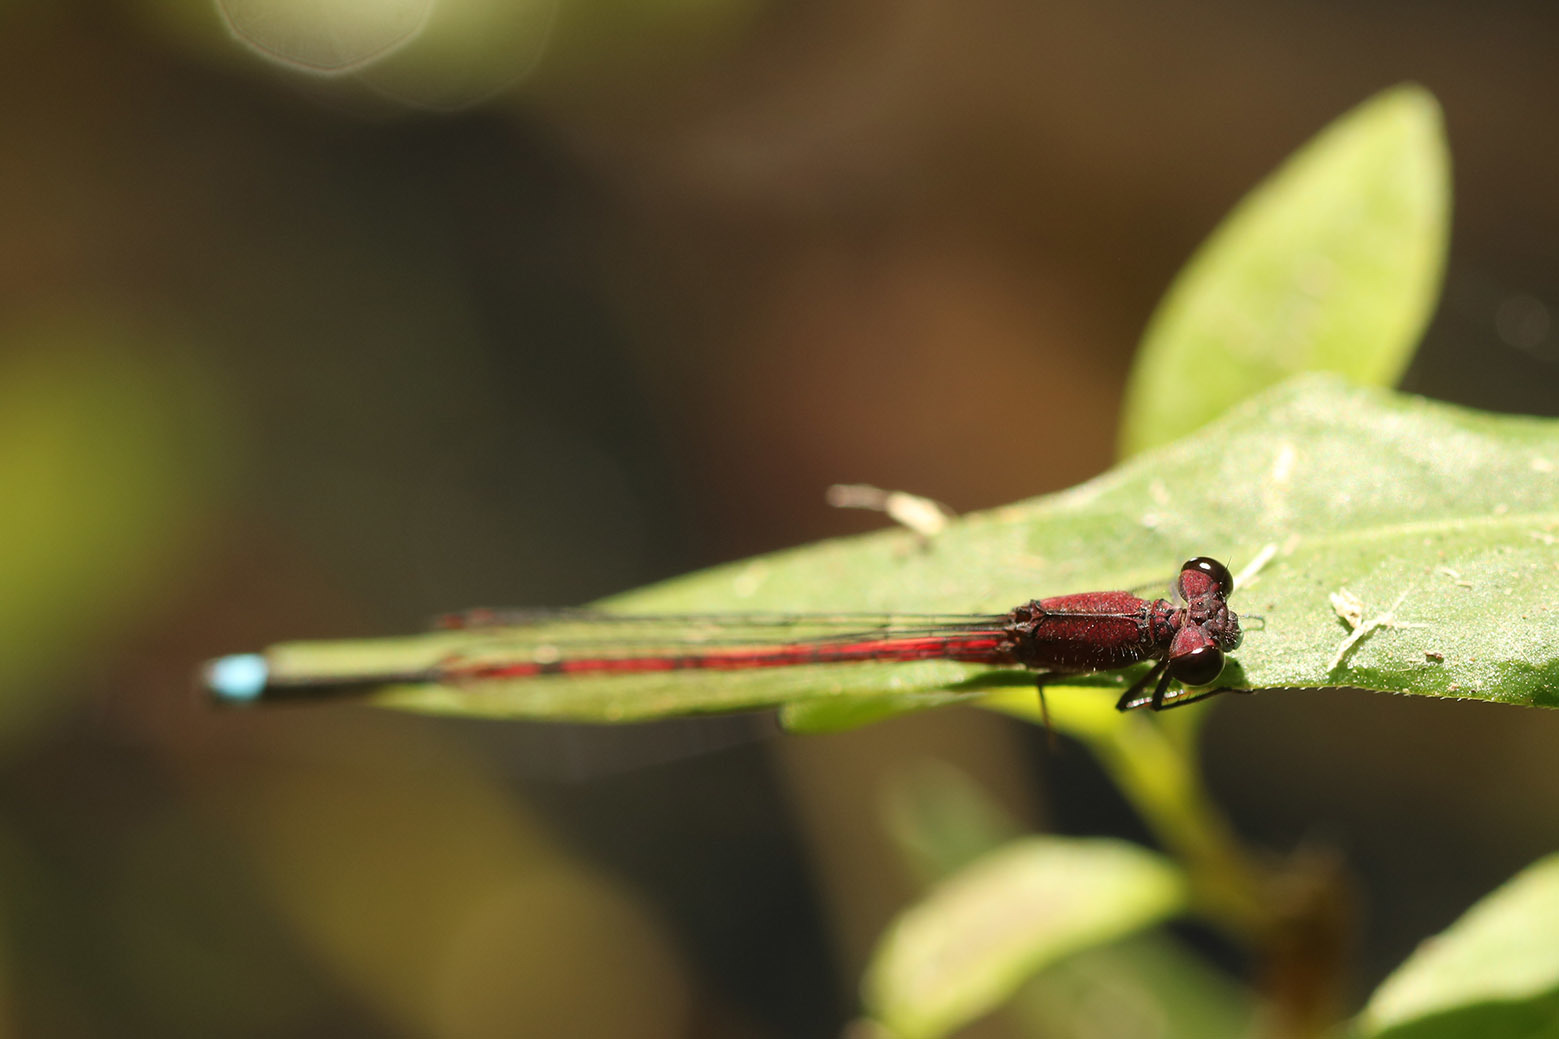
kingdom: Animalia
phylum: Arthropoda
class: Insecta
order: Odonata
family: Coenagrionidae
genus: Oxyagrion
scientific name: Oxyagrion terminale
